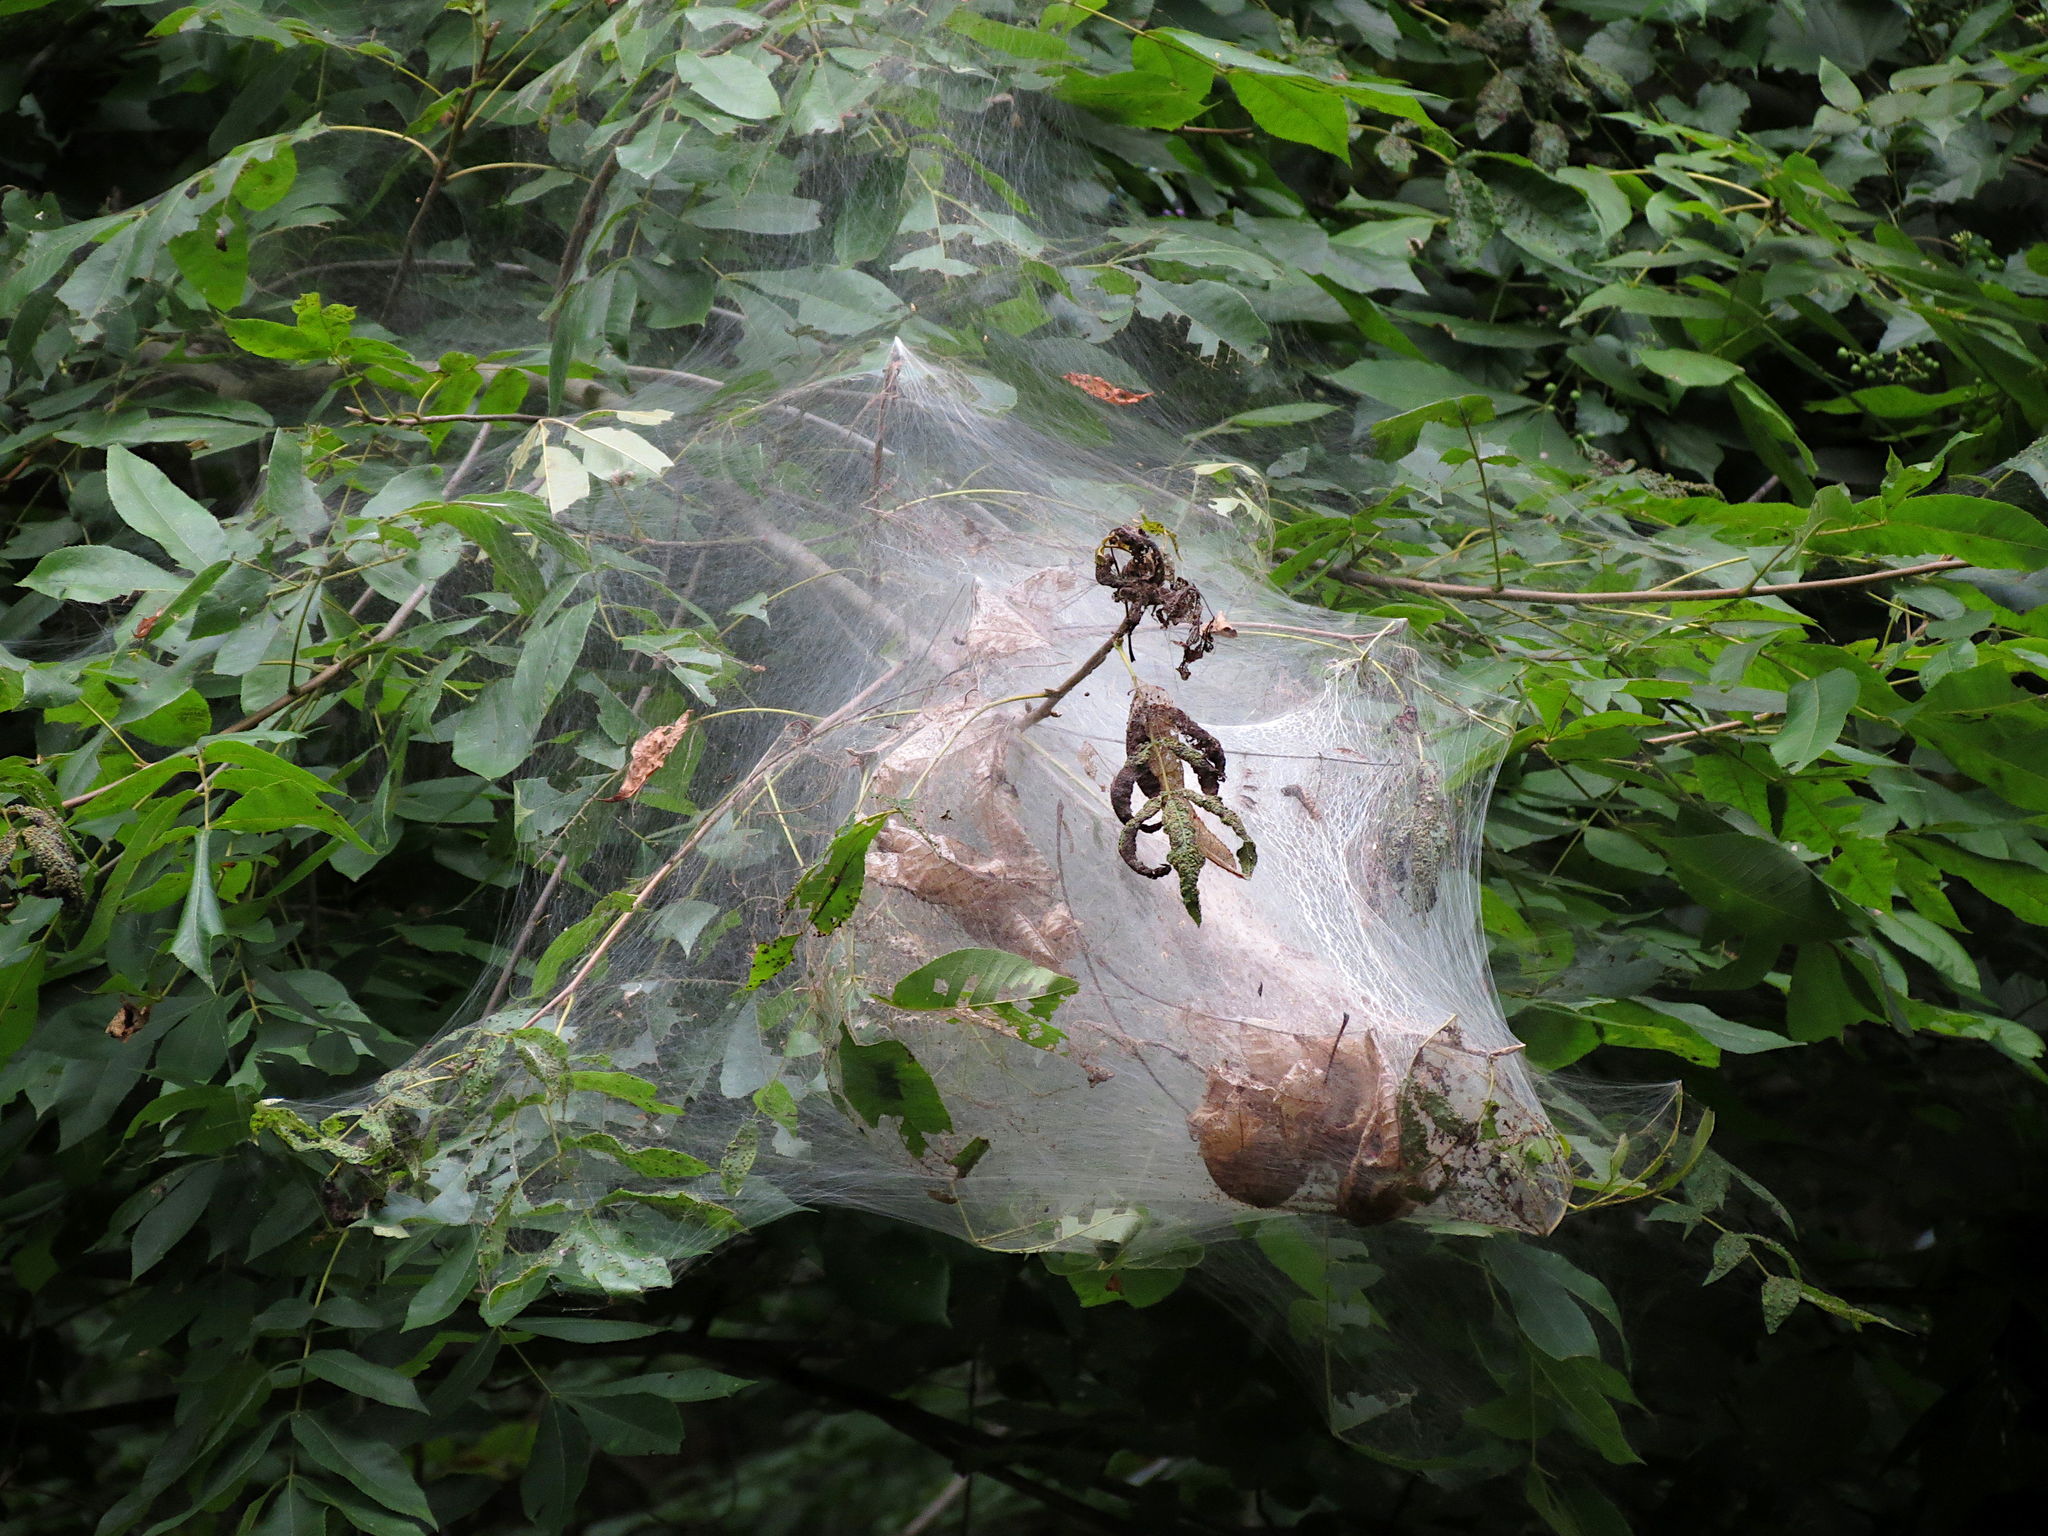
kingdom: Animalia
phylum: Arthropoda
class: Insecta
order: Lepidoptera
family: Erebidae
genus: Hyphantria
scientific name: Hyphantria cunea
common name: American white moth
